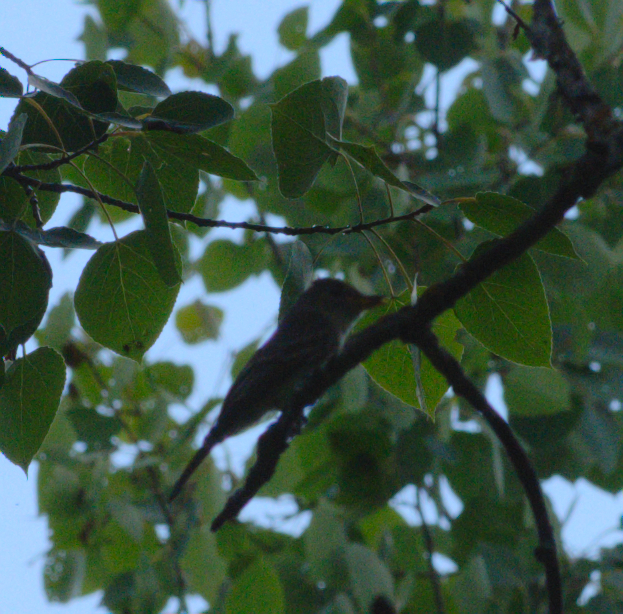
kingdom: Animalia
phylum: Chordata
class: Aves
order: Passeriformes
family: Tyrannidae
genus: Contopus
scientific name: Contopus virens
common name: Eastern wood-pewee
